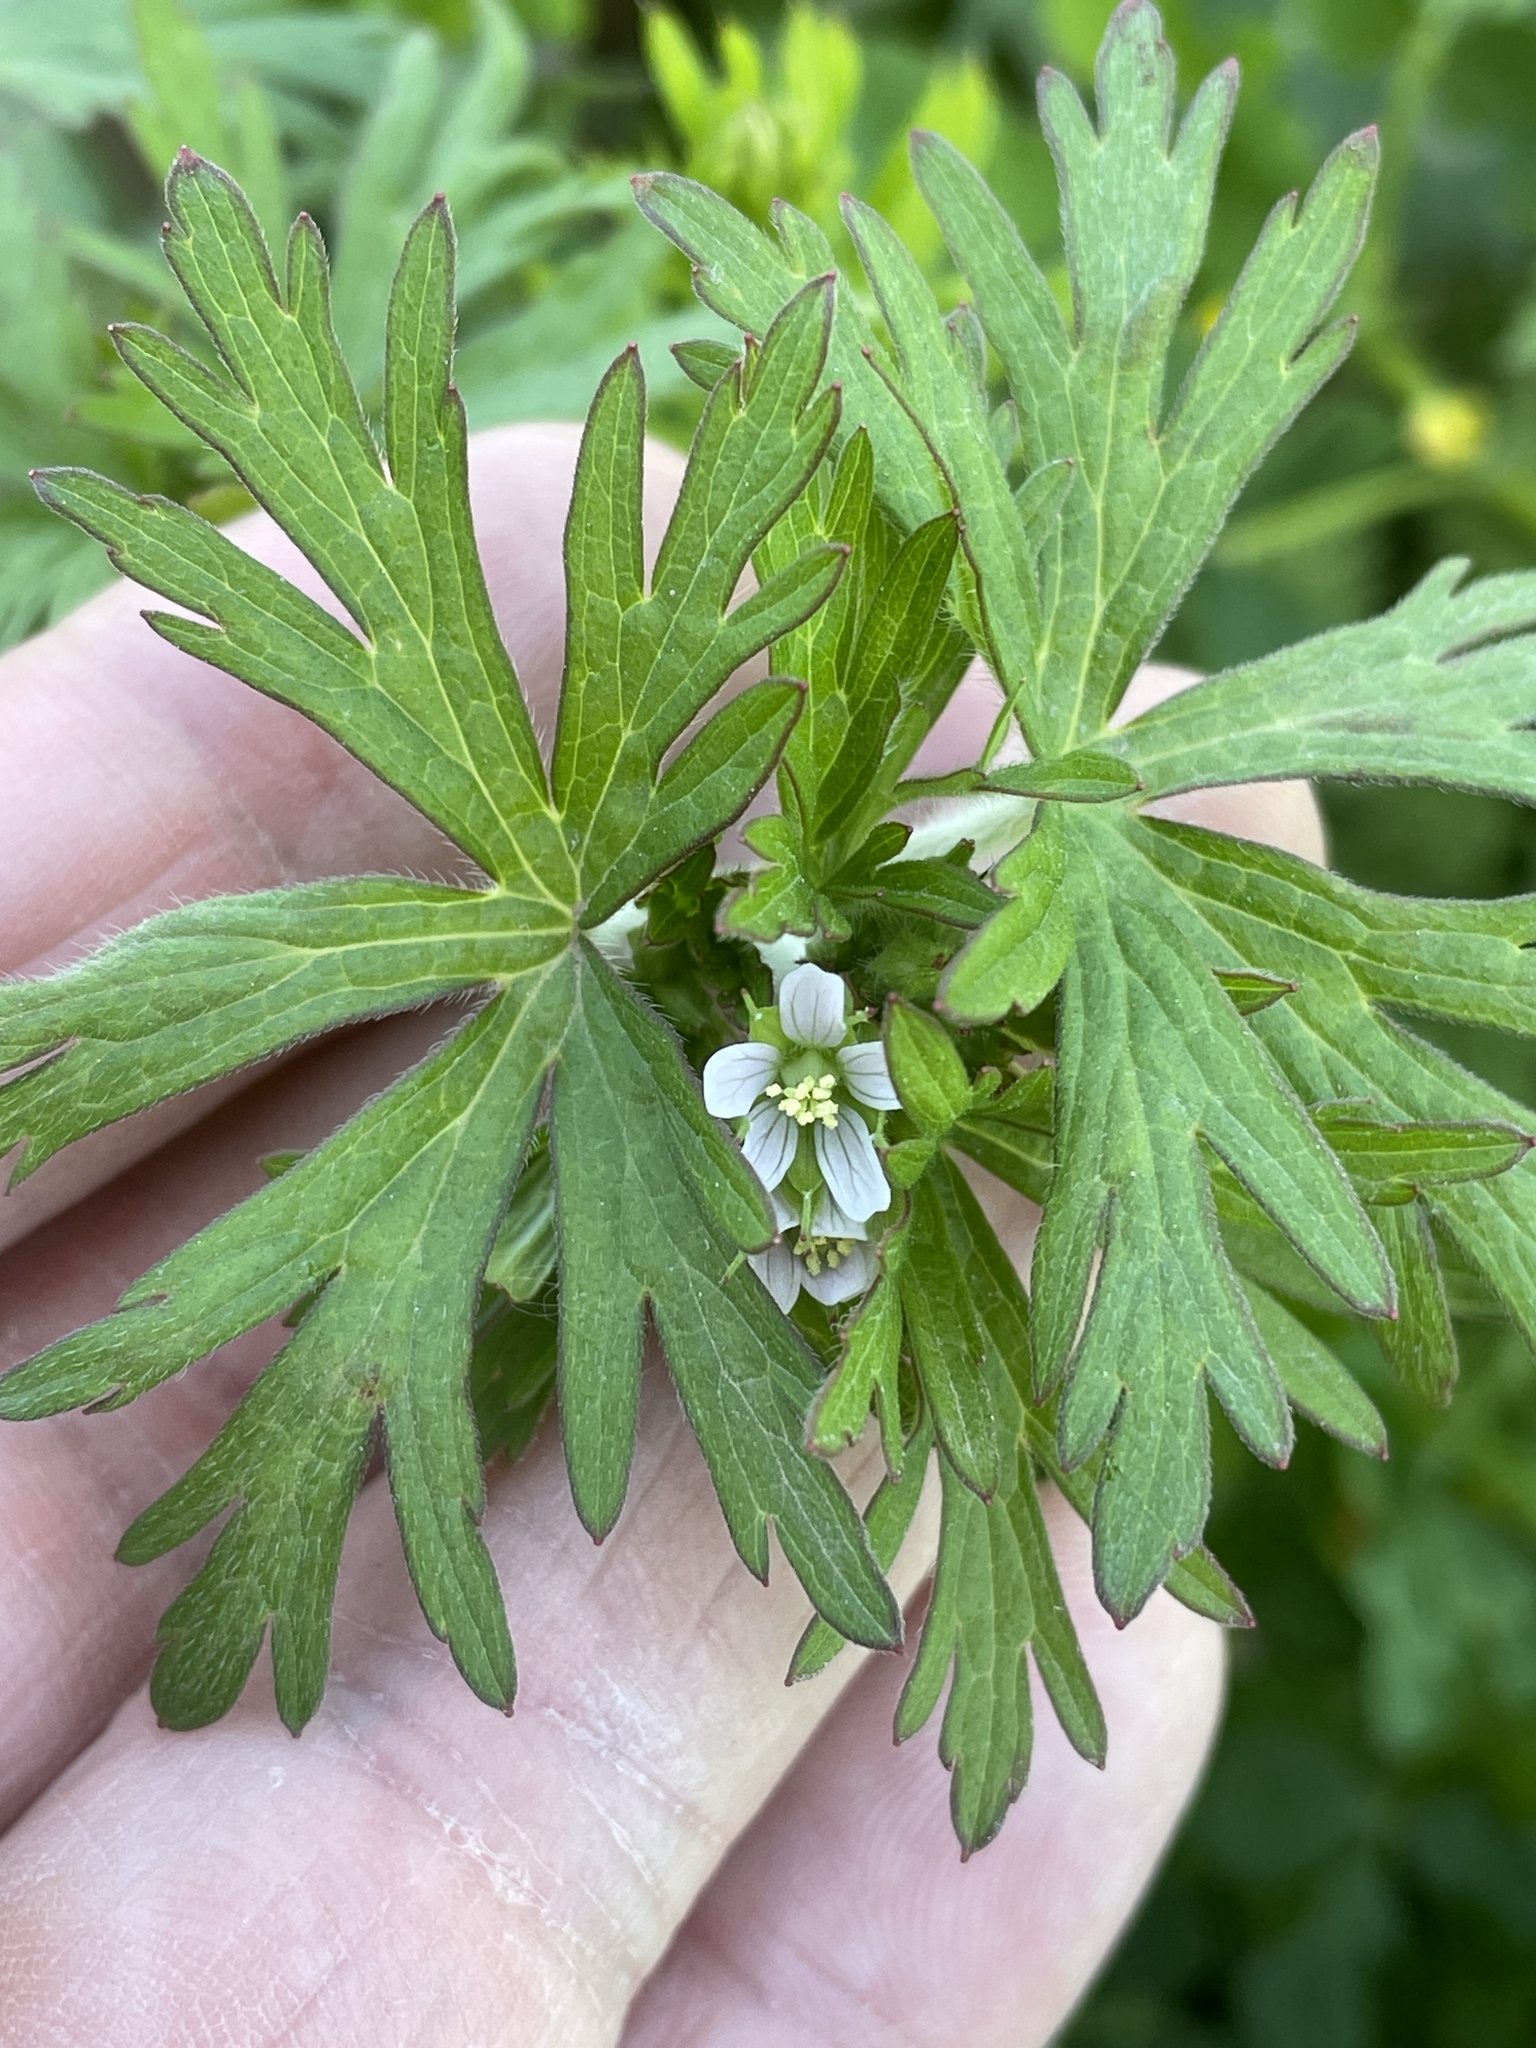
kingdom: Plantae
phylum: Tracheophyta
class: Magnoliopsida
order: Geraniales
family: Geraniaceae
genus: Geranium
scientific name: Geranium carolinianum
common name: Carolina crane's-bill
